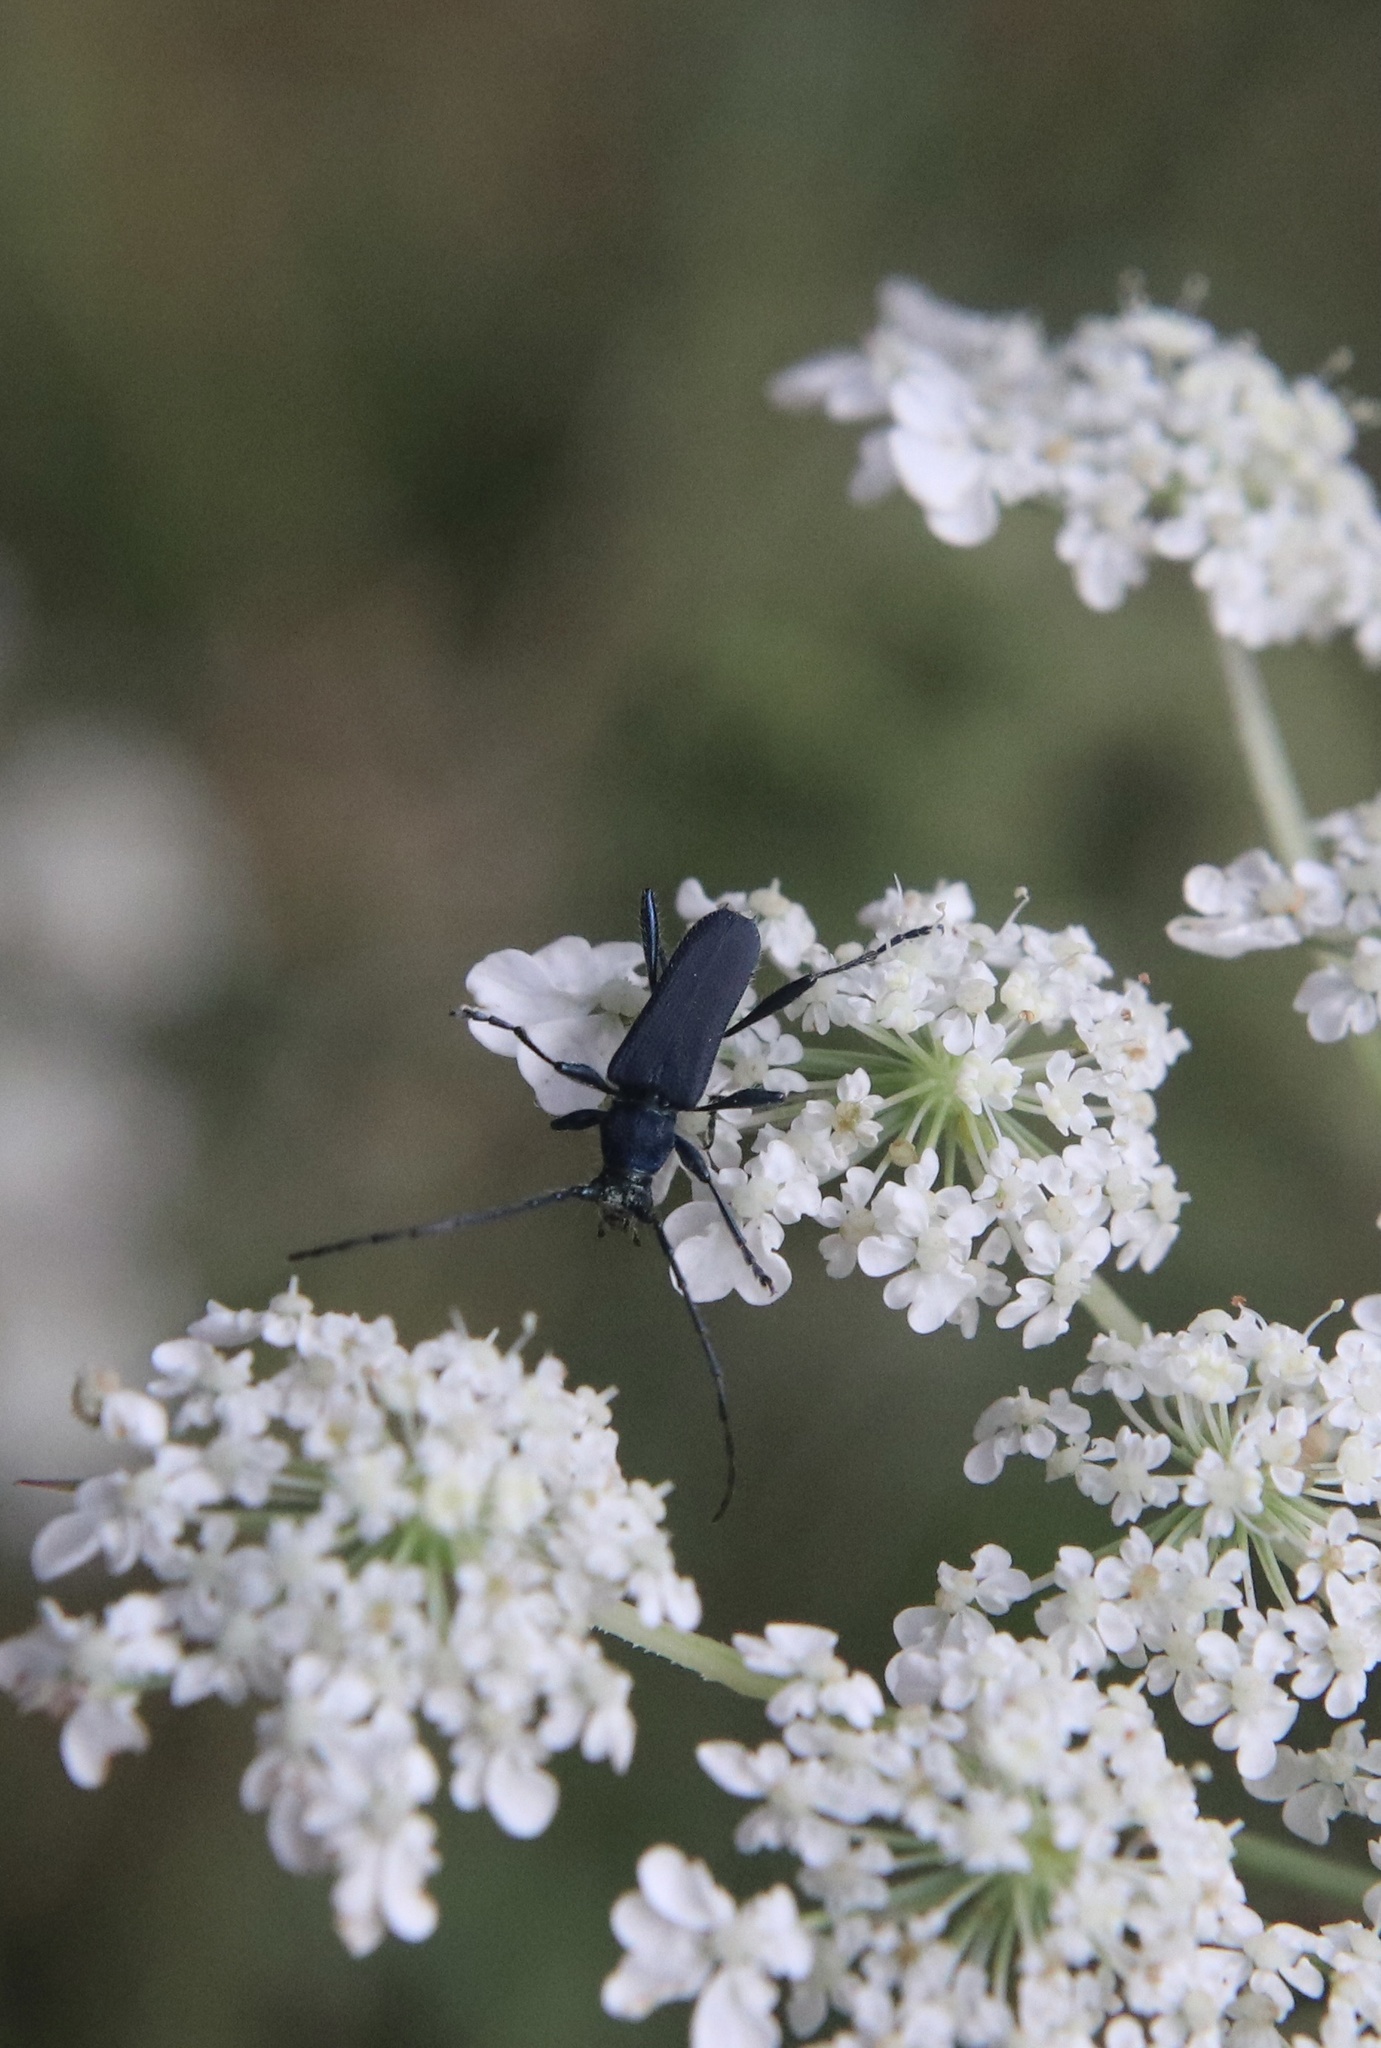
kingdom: Animalia
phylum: Arthropoda
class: Insecta
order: Coleoptera
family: Cerambycidae
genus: Eryphus
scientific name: Eryphus laetus
